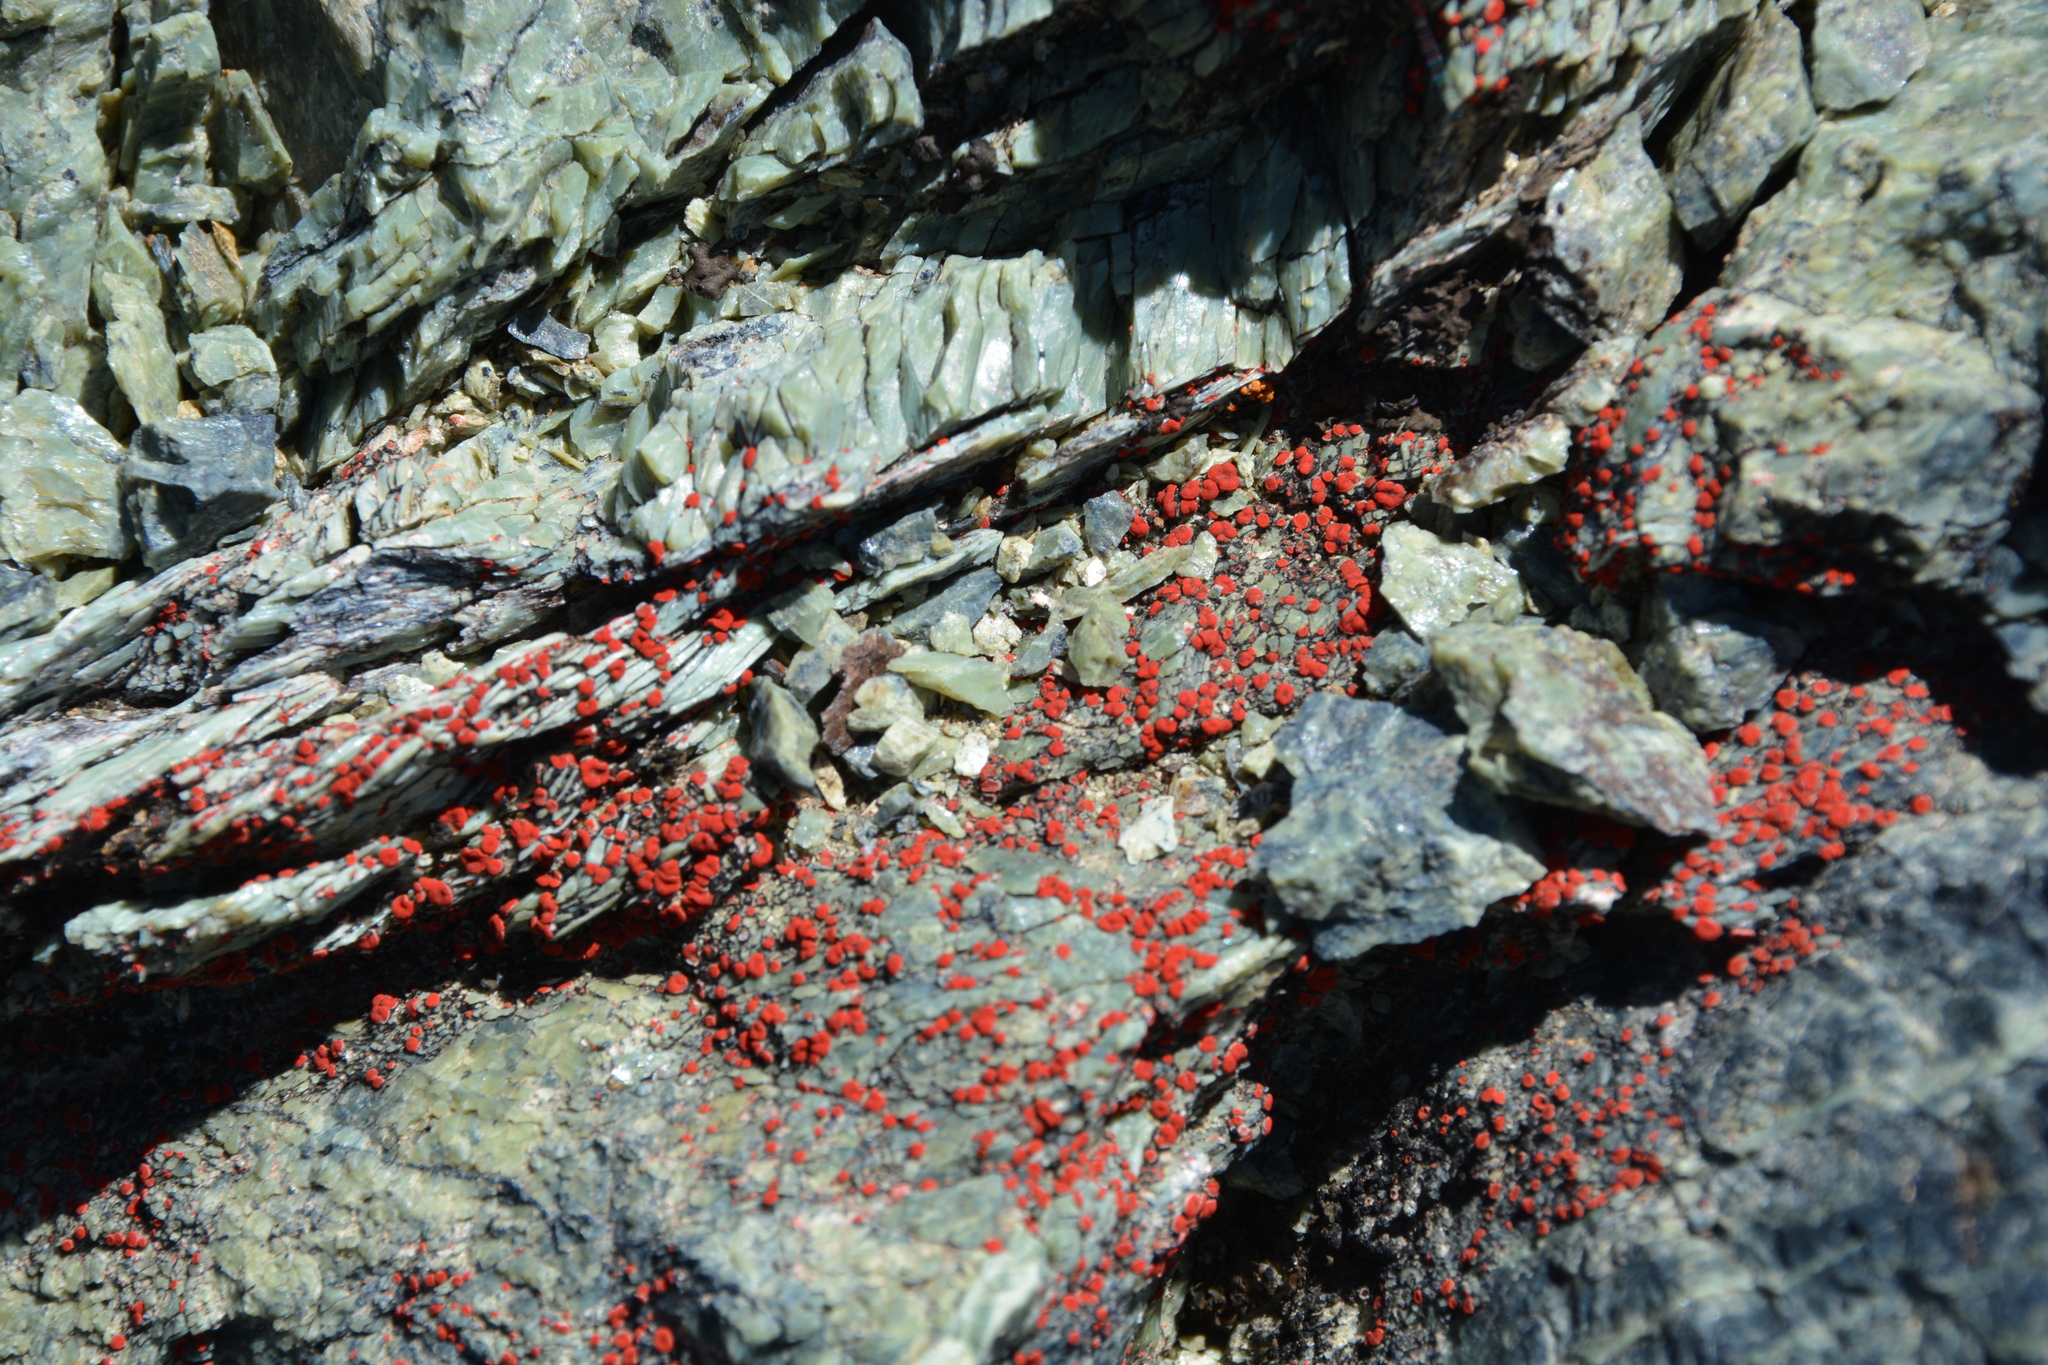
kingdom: Fungi
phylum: Ascomycota
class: Lecanoromycetes
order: Teloschistales
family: Teloschistaceae
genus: Tomnashia
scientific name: Tomnashia luteominia
